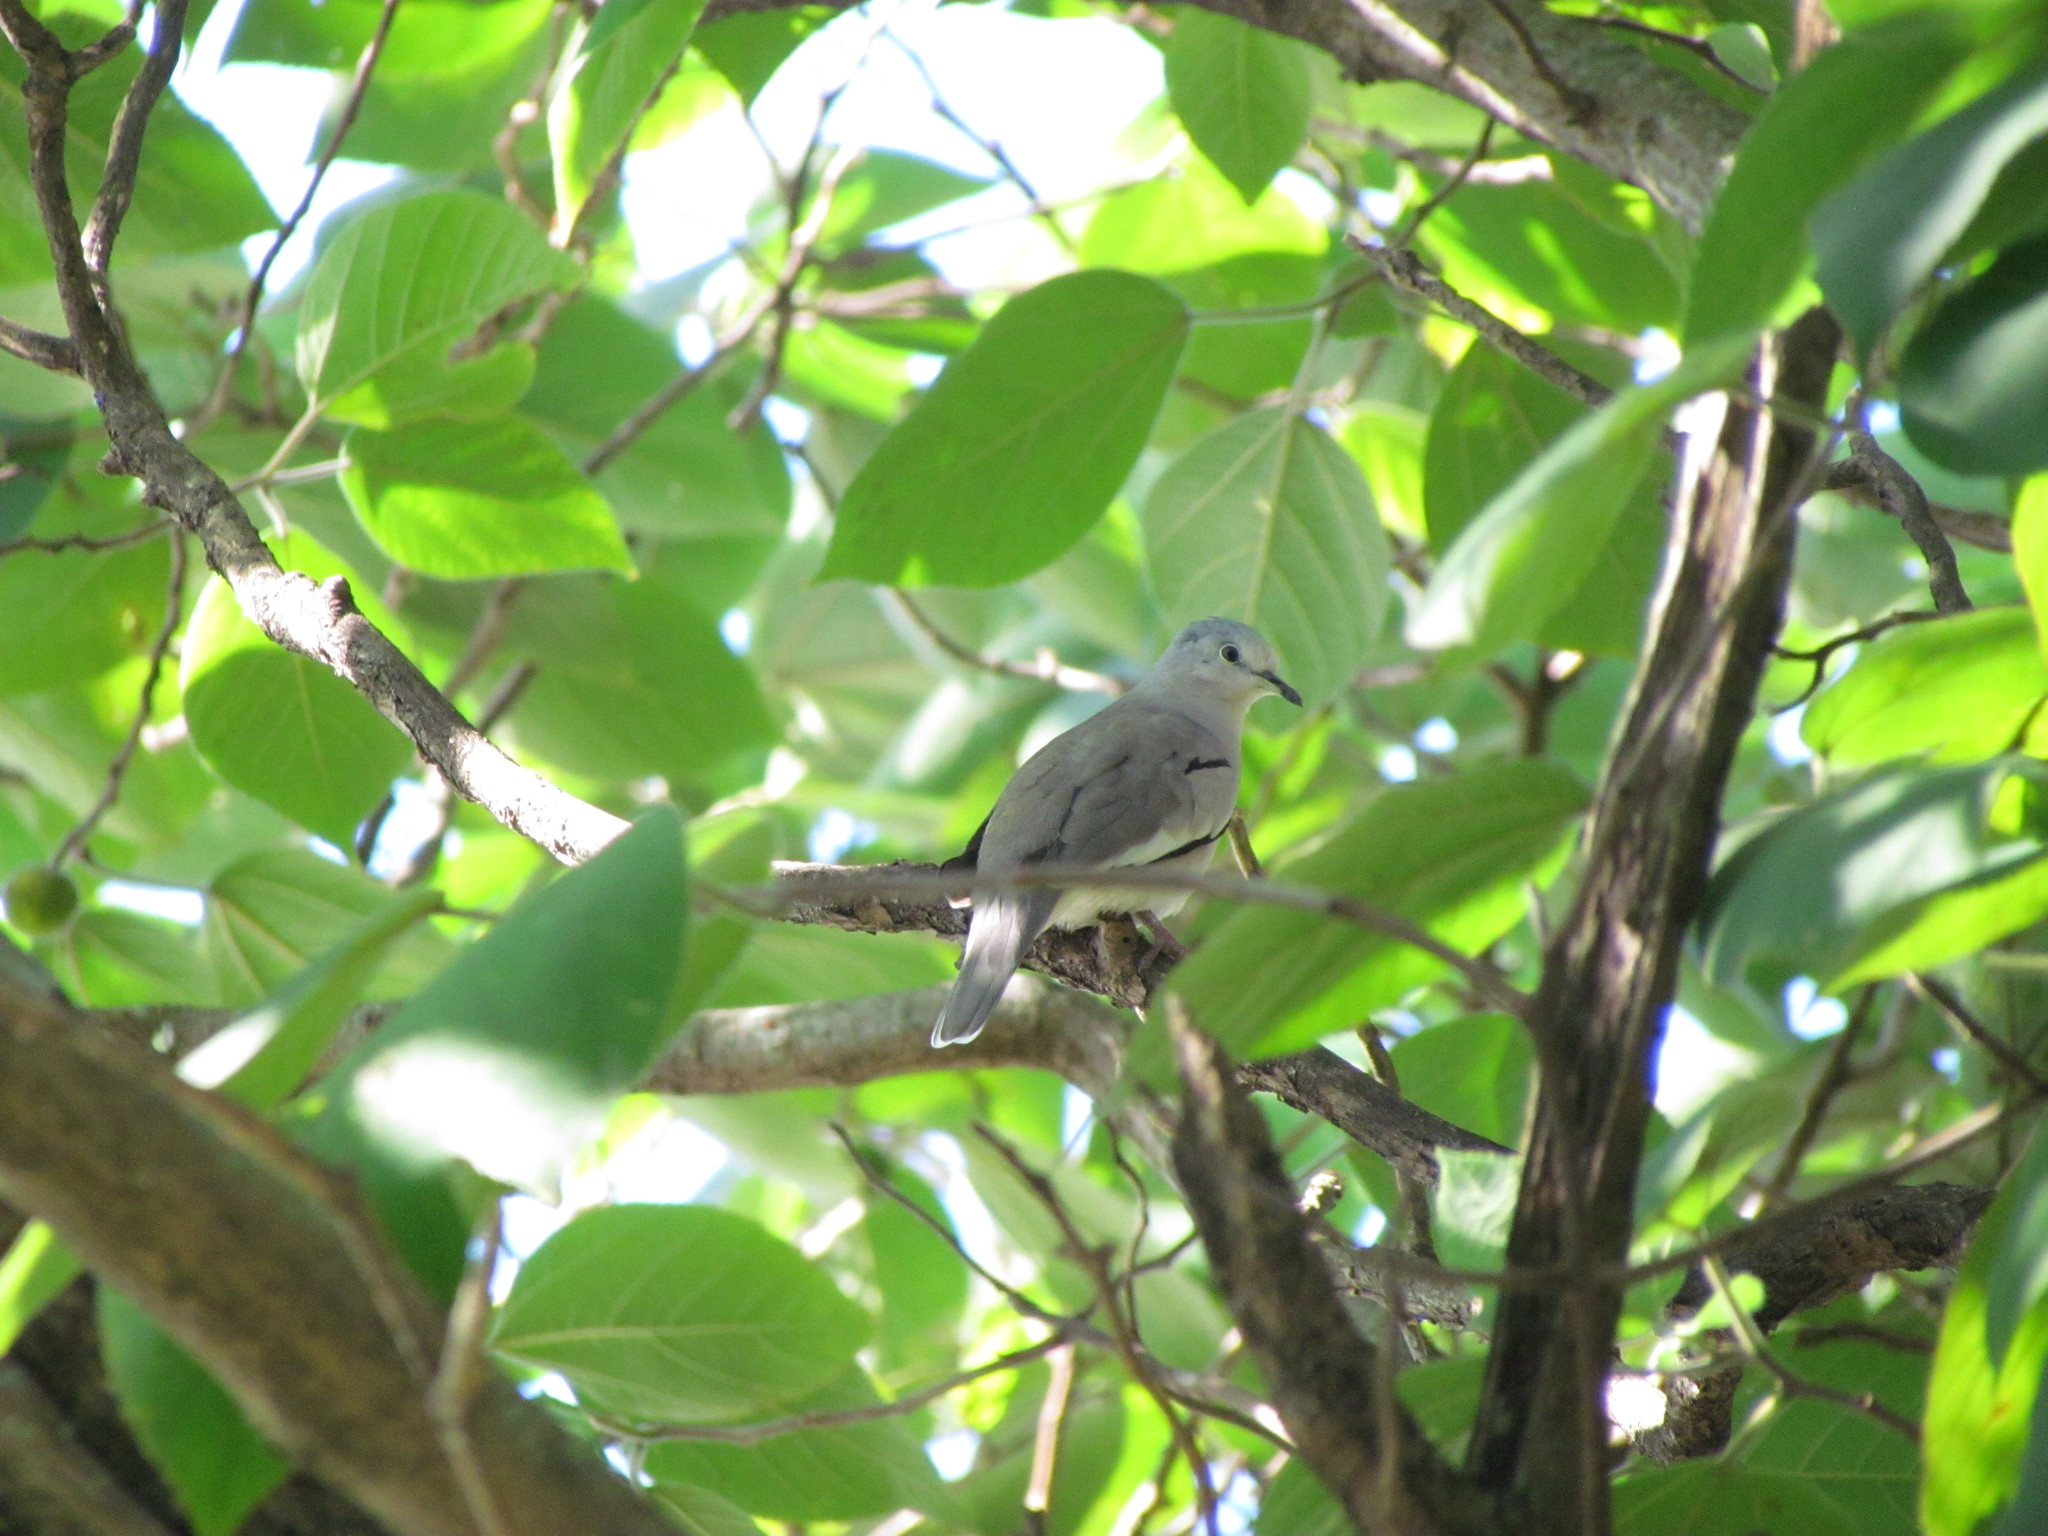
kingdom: Animalia
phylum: Chordata
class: Aves
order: Columbiformes
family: Columbidae
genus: Columbina
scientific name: Columbina picui
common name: Picui ground dove
